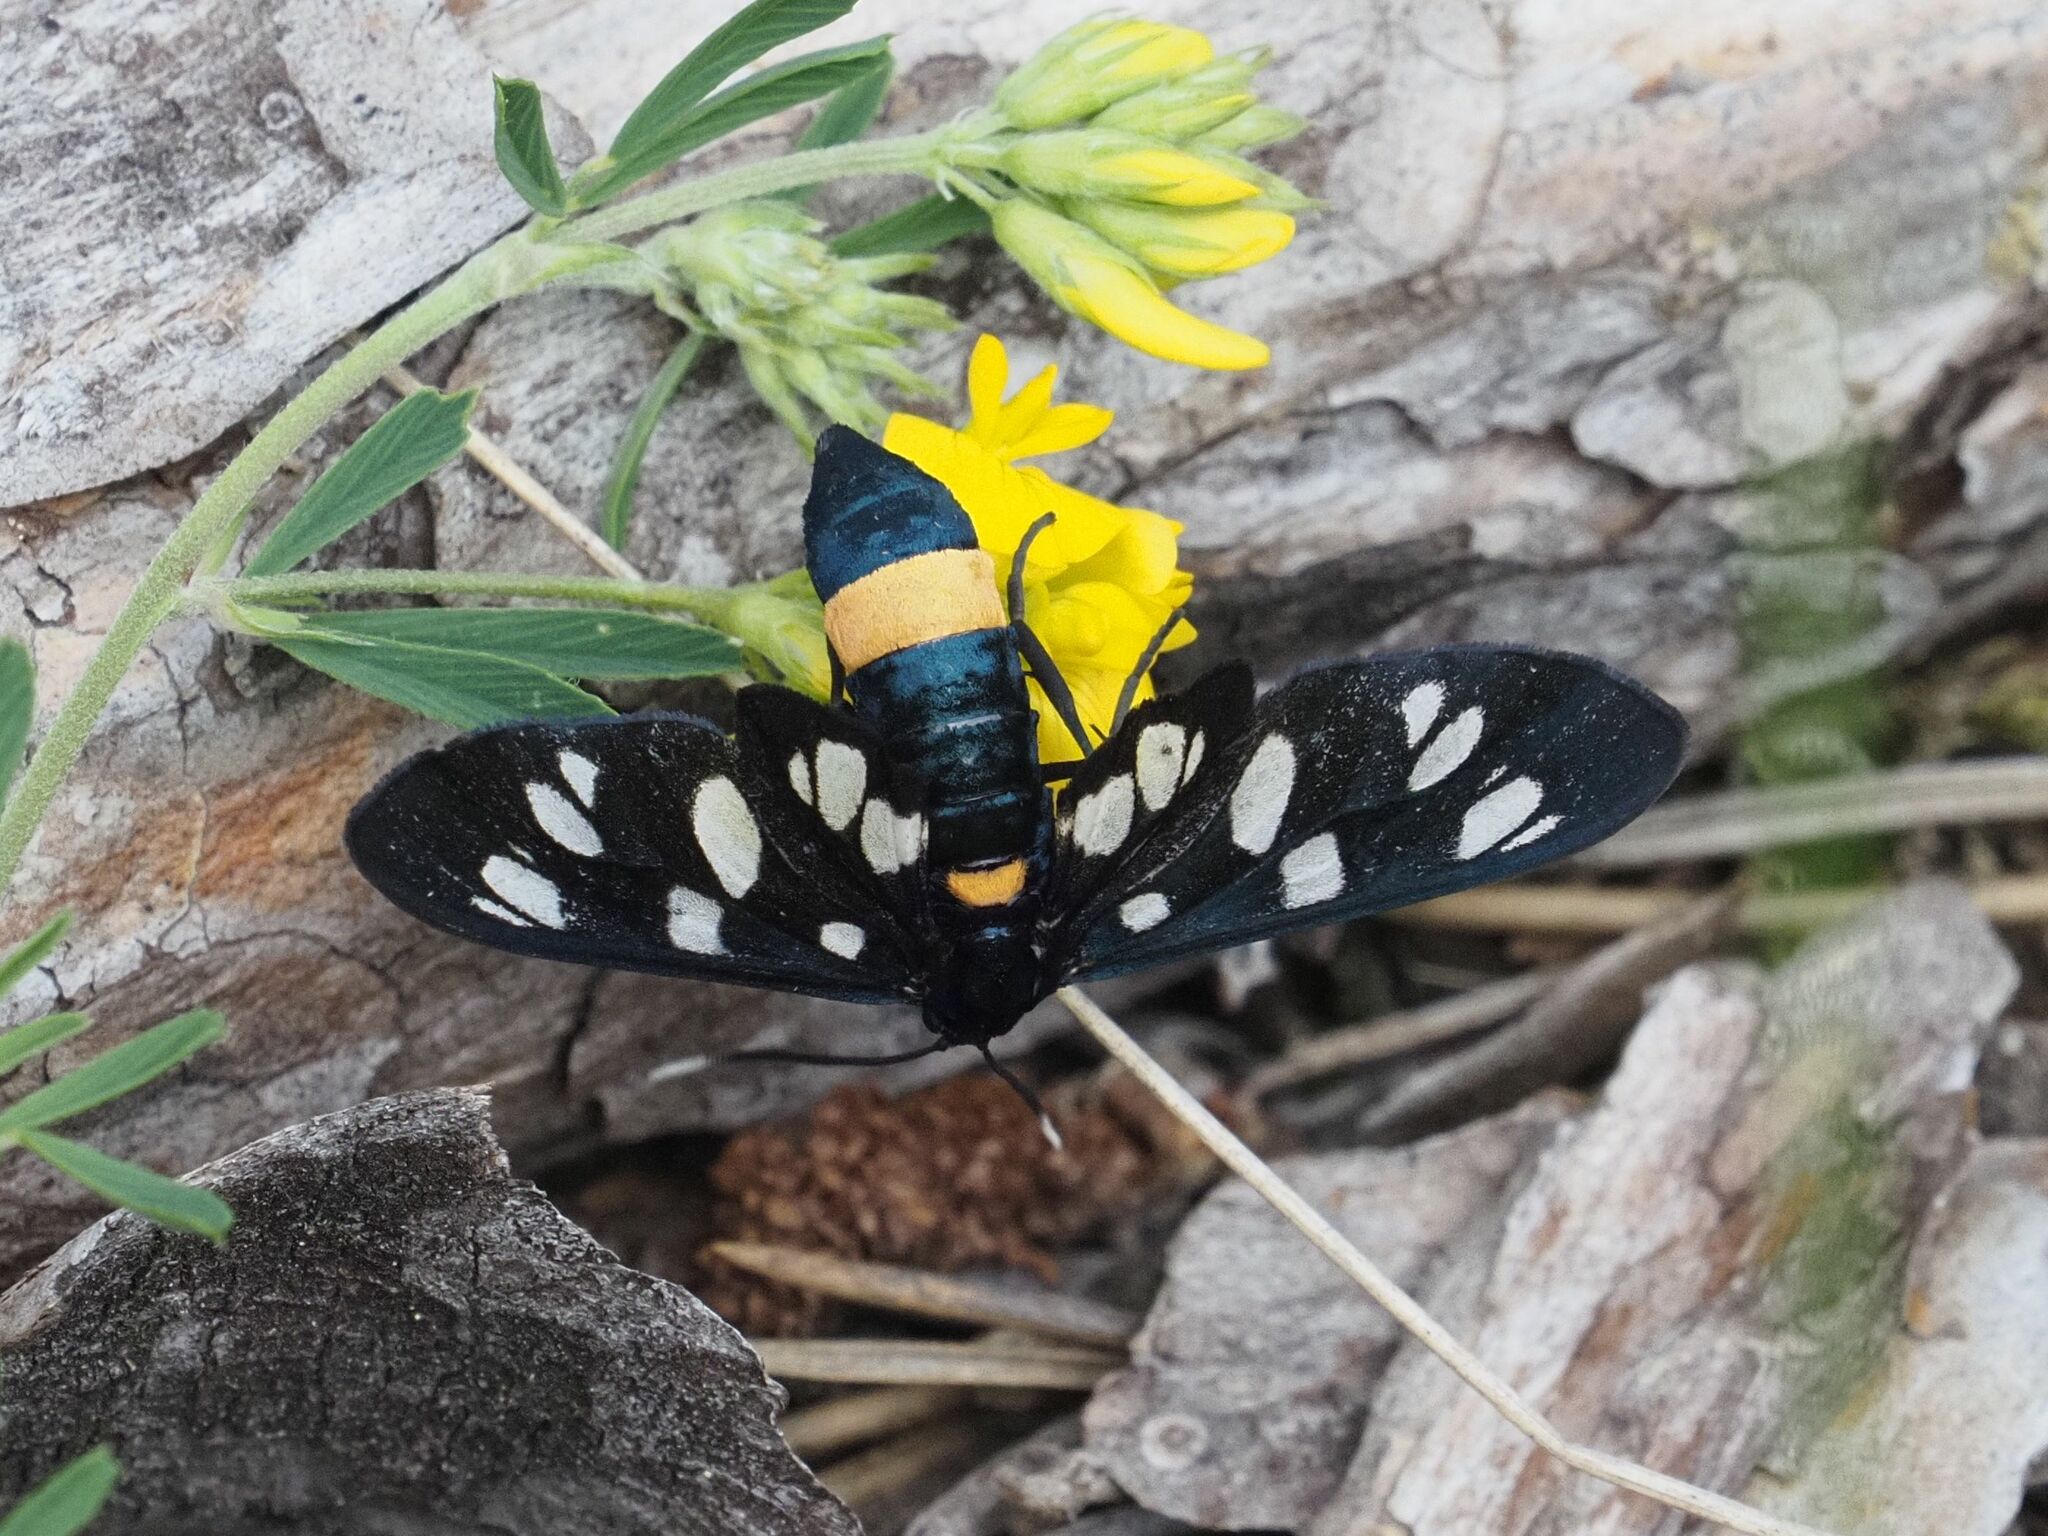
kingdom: Animalia
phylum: Arthropoda
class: Insecta
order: Lepidoptera
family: Erebidae
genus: Amata
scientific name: Amata phegea
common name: Nine-spotted
